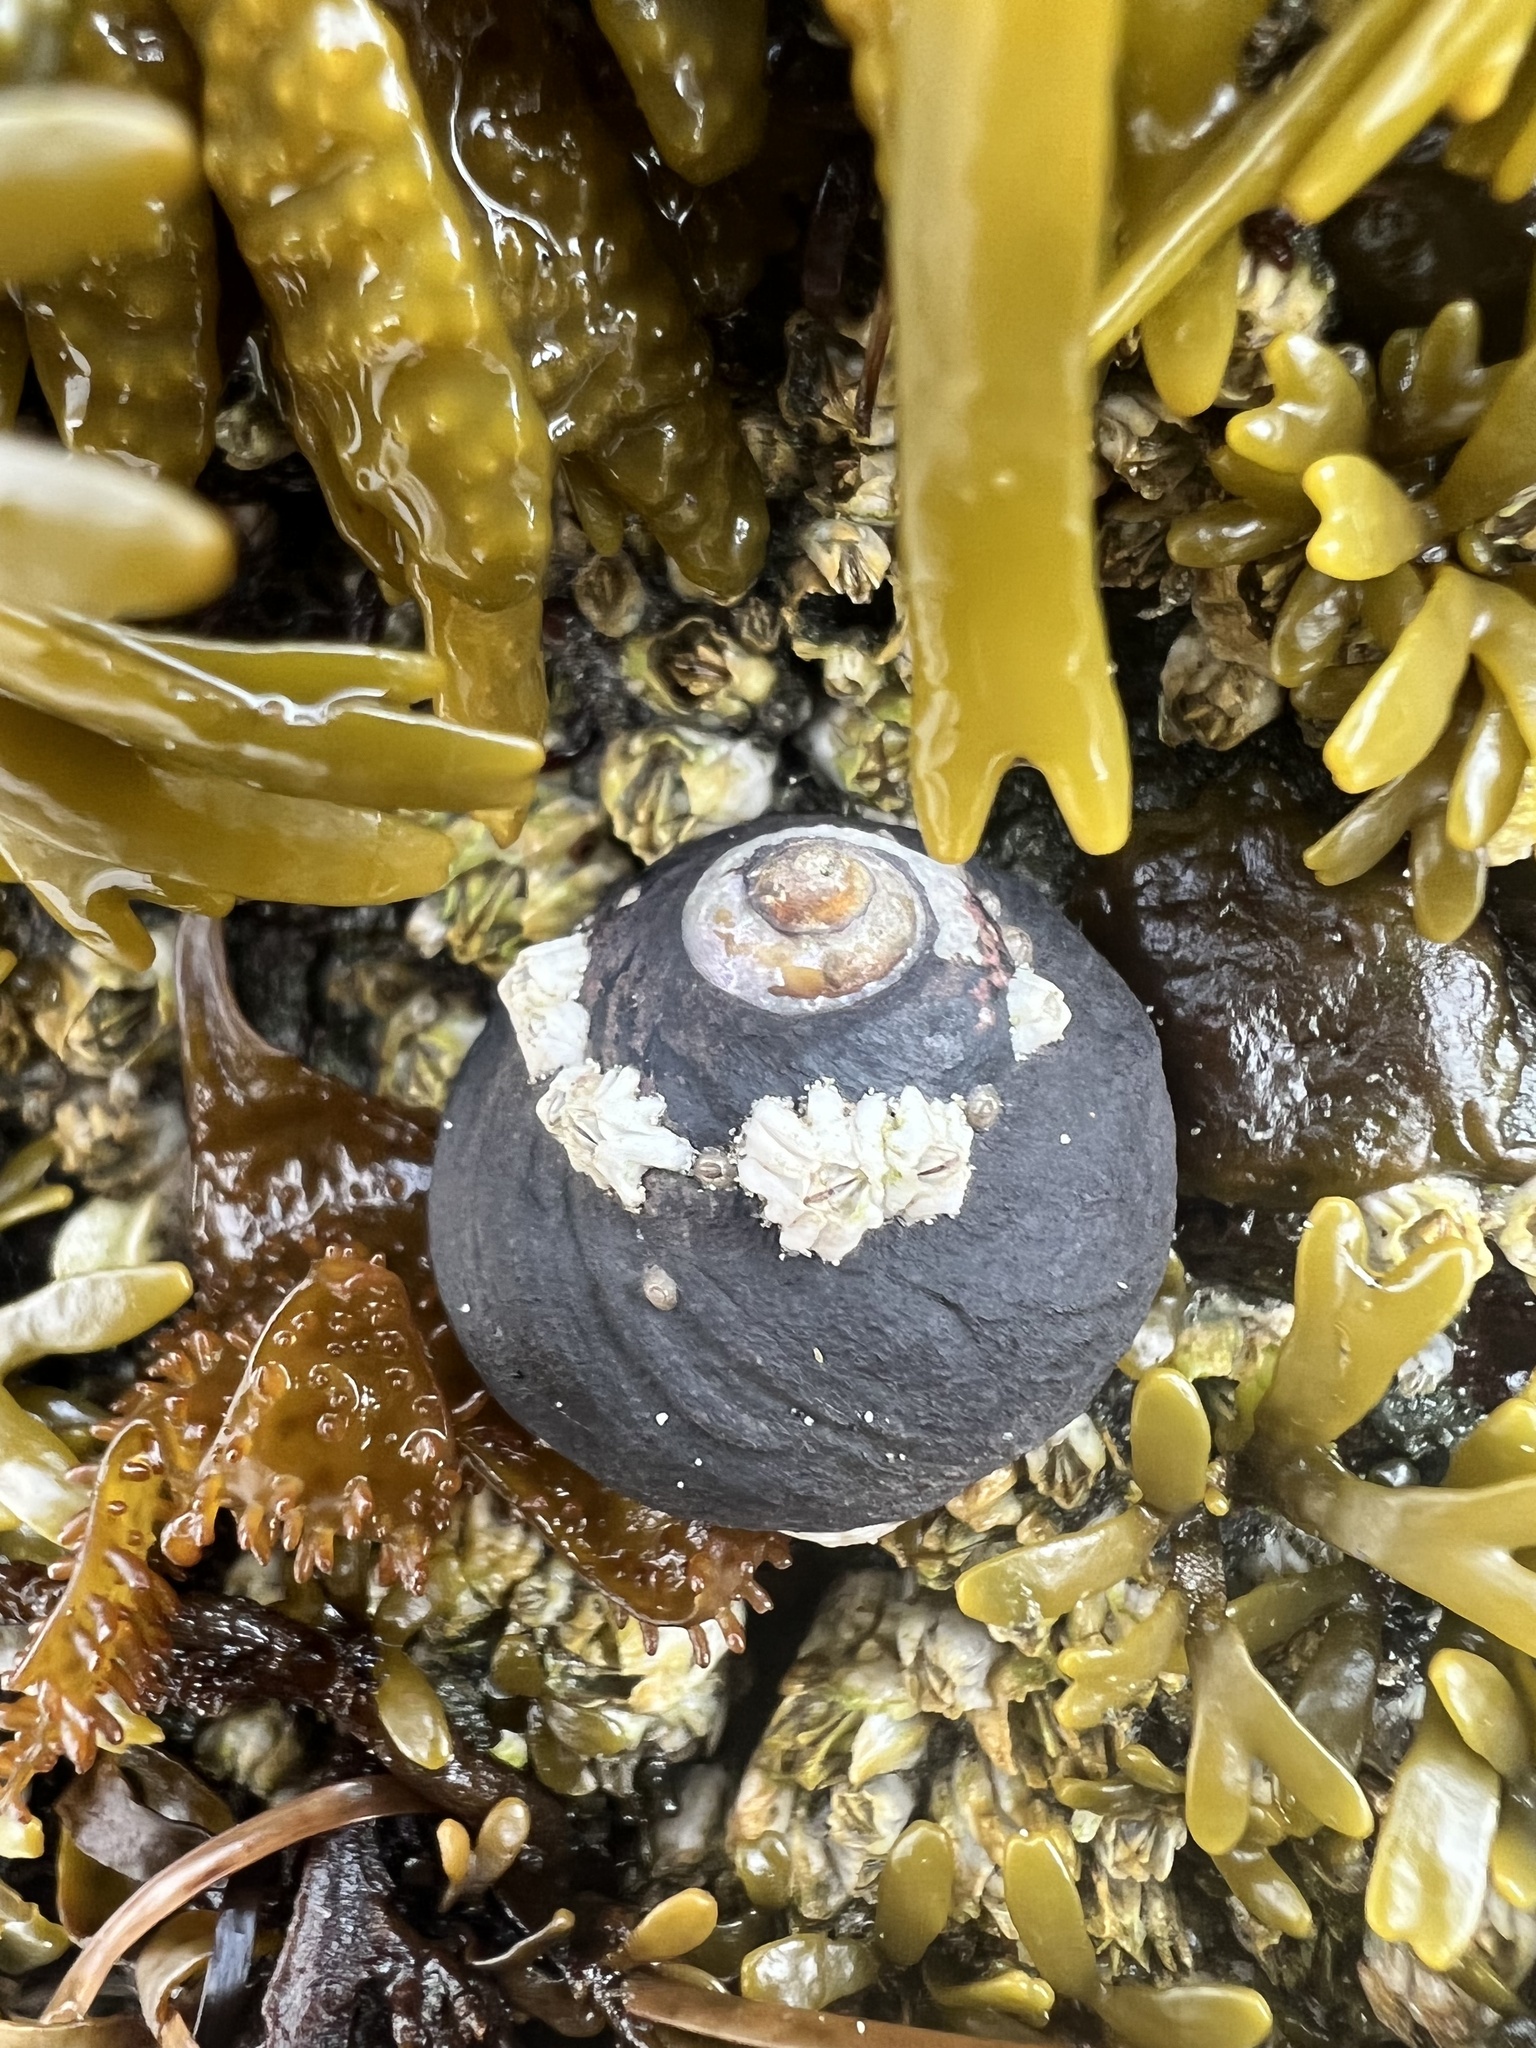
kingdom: Animalia
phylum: Mollusca
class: Gastropoda
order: Trochida
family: Tegulidae
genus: Tegula
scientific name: Tegula funebralis
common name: Black tegula
